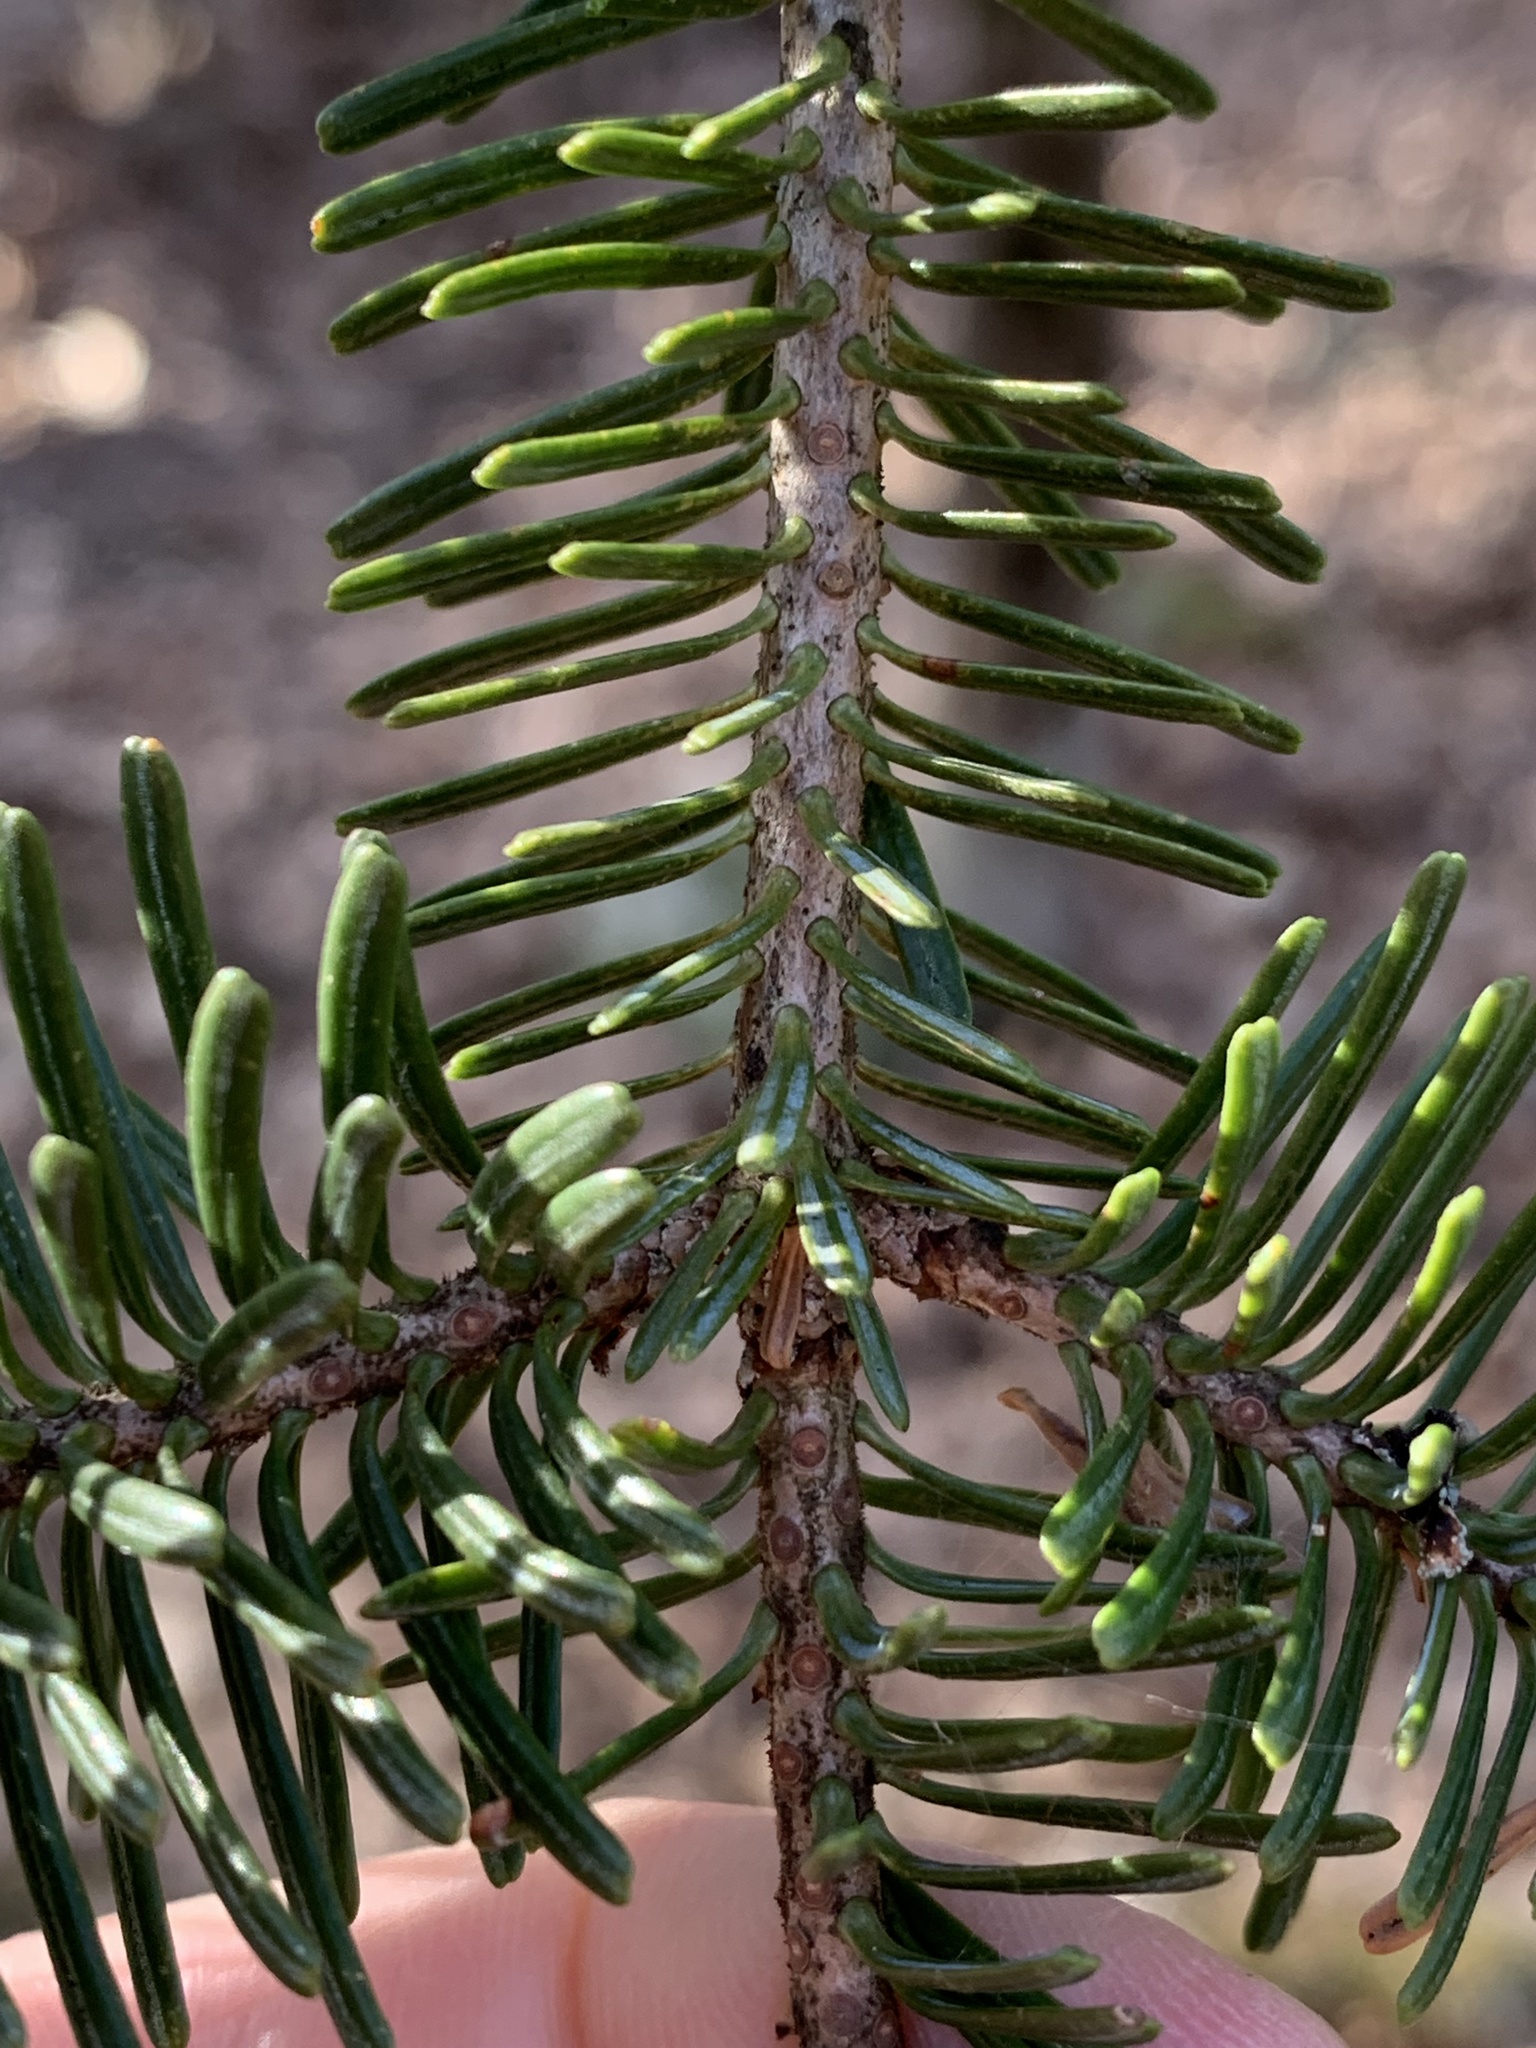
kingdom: Plantae
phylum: Tracheophyta
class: Pinopsida
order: Pinales
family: Pinaceae
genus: Abies
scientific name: Abies balsamea
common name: Balsam fir
